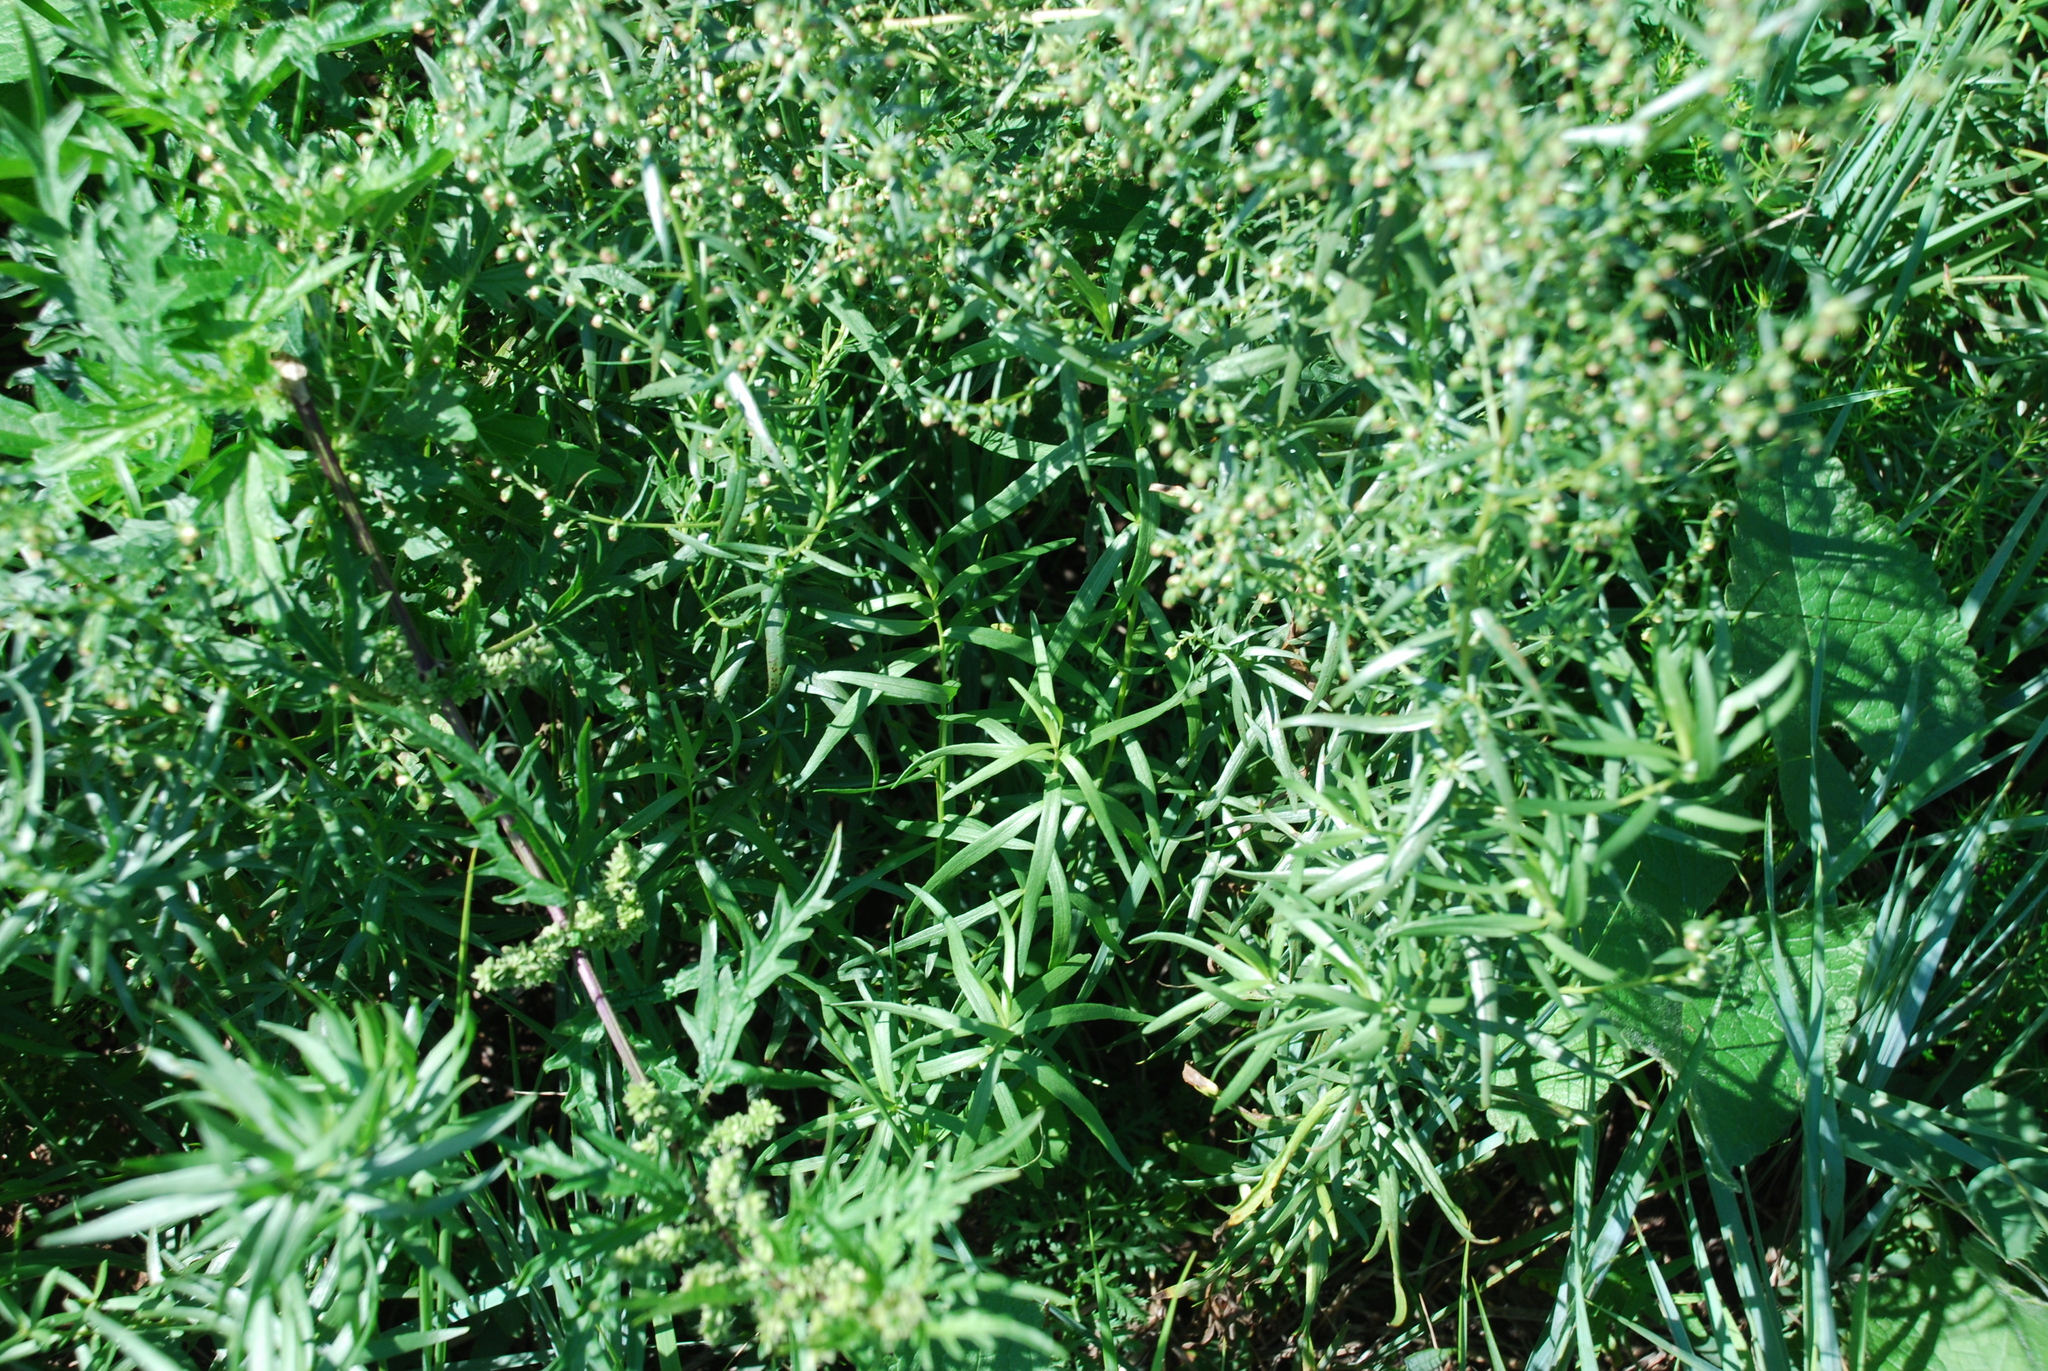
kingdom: Plantae
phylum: Tracheophyta
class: Magnoliopsida
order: Asterales
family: Asteraceae
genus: Artemisia
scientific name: Artemisia dracunculus
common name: Tarragon
